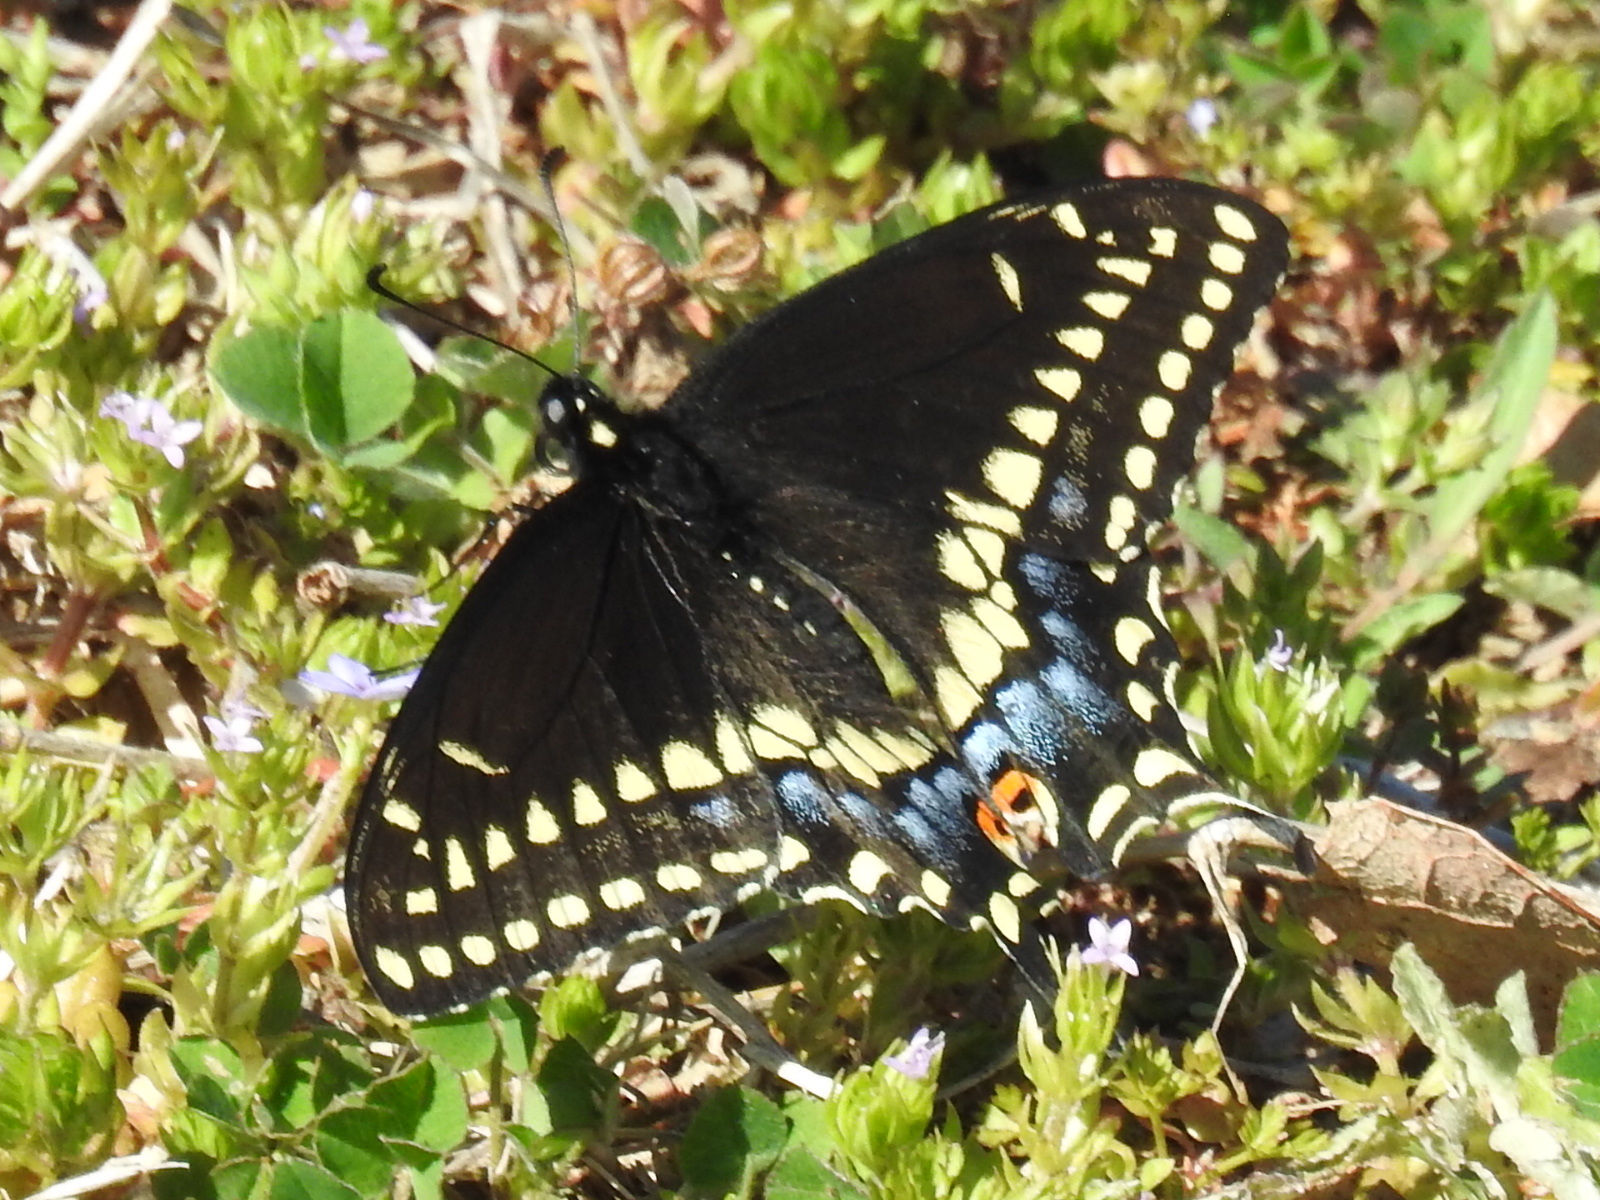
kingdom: Animalia
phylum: Arthropoda
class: Insecta
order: Lepidoptera
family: Papilionidae
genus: Papilio
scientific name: Papilio polyxenes
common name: Black swallowtail
